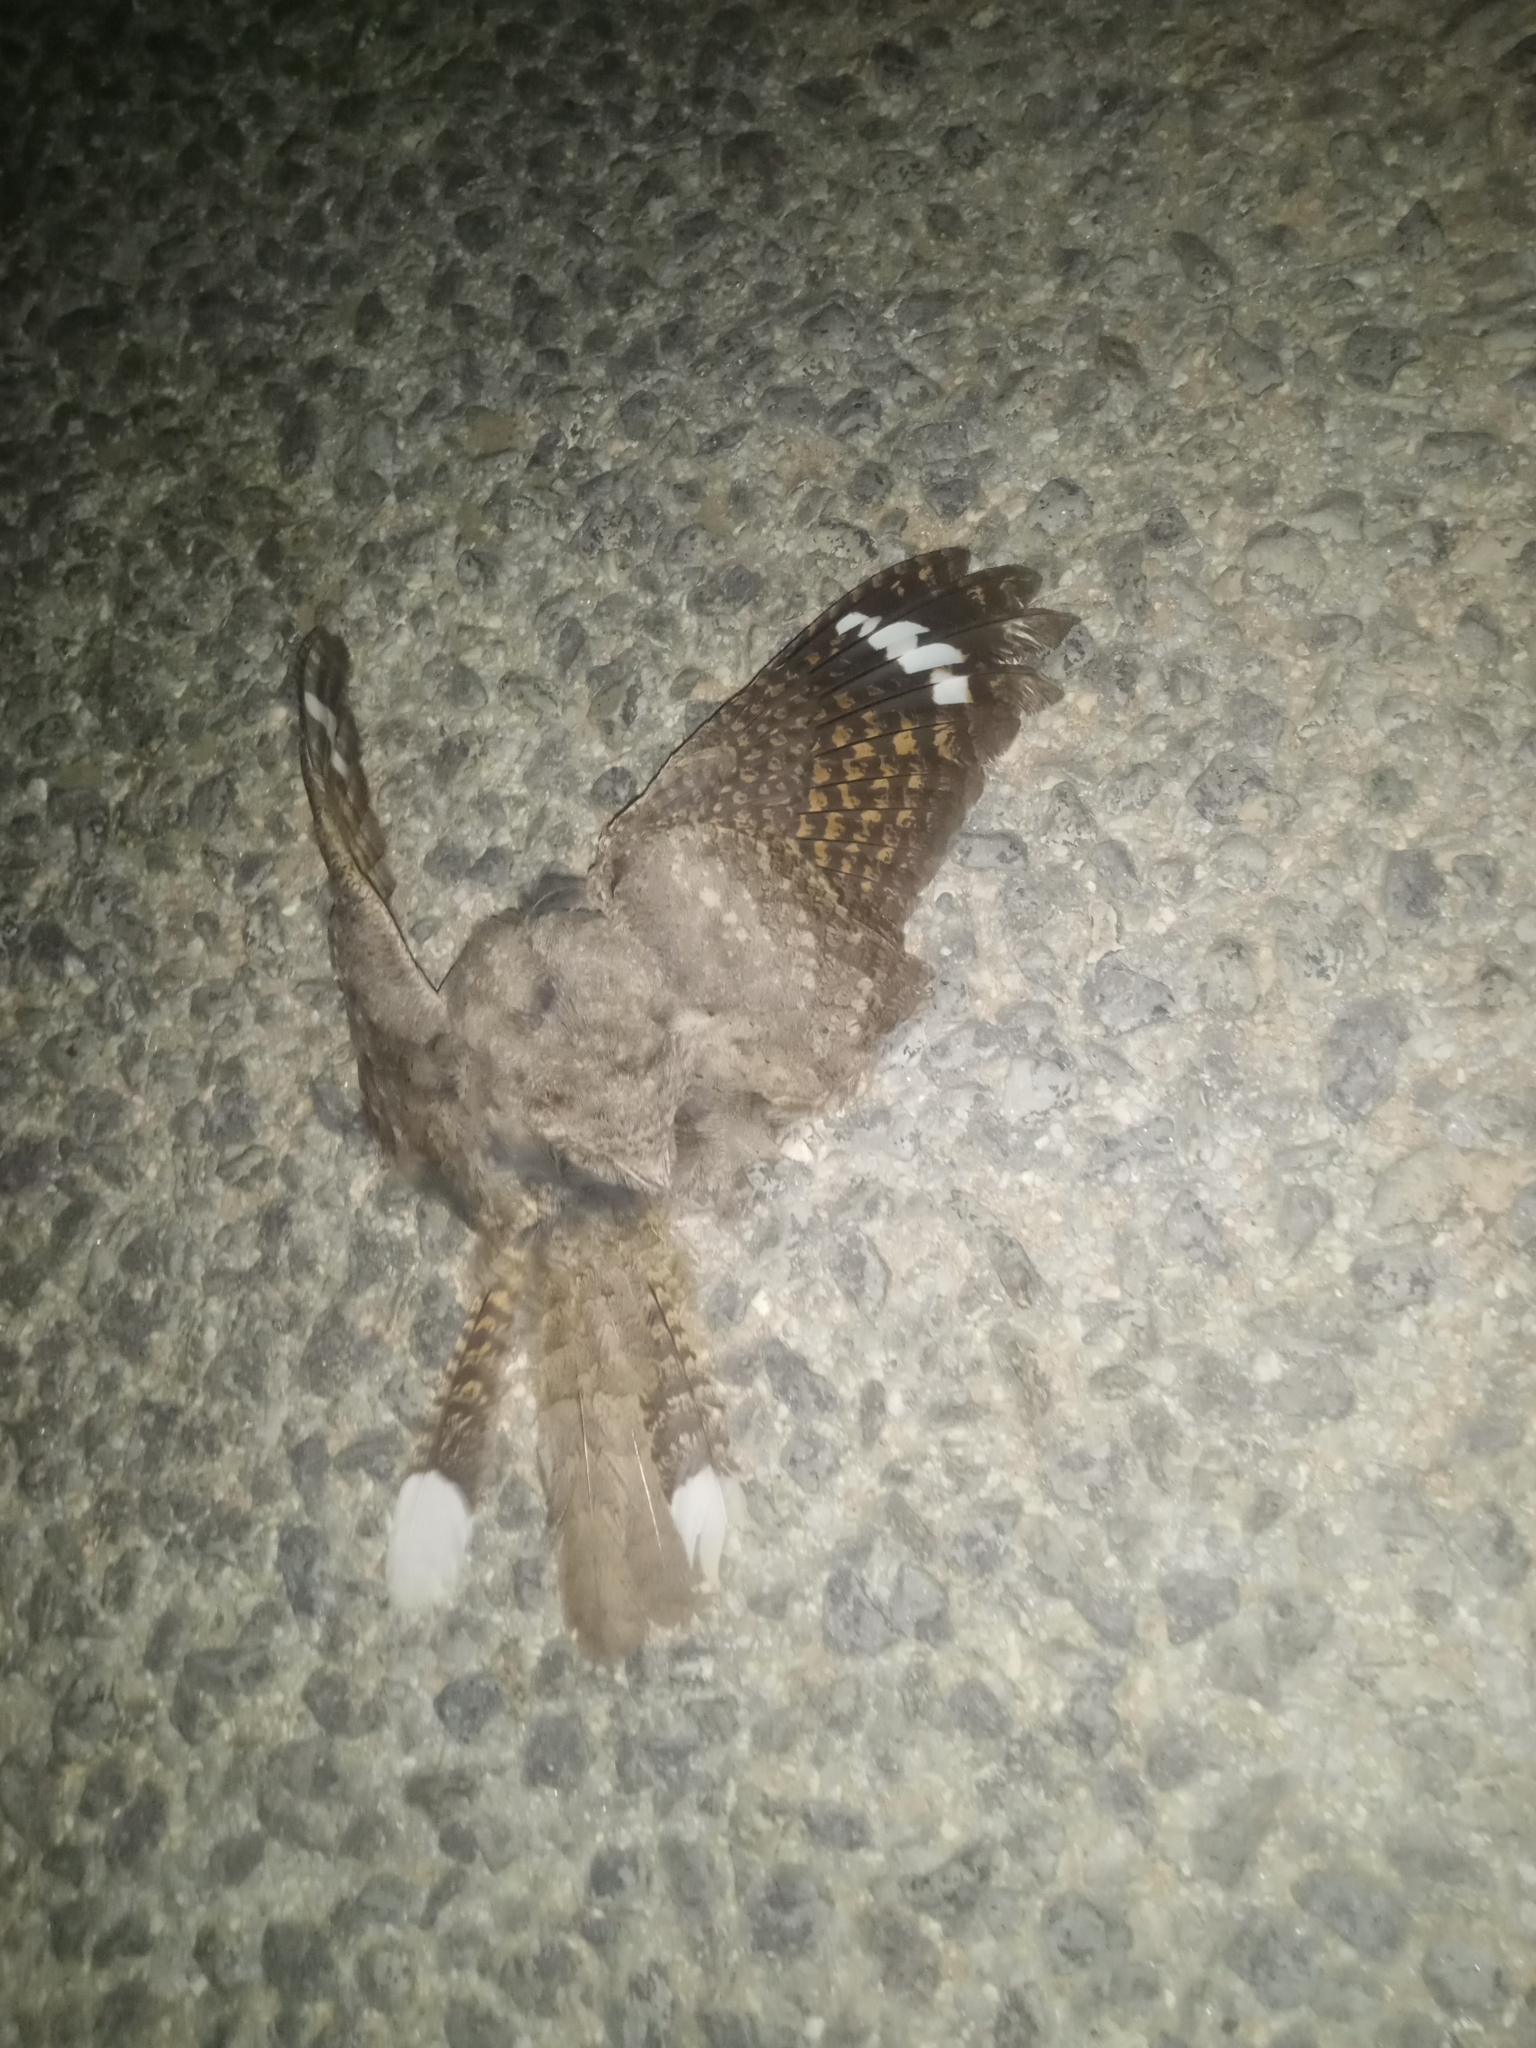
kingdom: Animalia
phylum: Chordata
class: Aves
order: Caprimulgiformes
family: Caprimulgidae
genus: Caprimulgus
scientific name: Caprimulgus europaeus
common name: European nightjar
